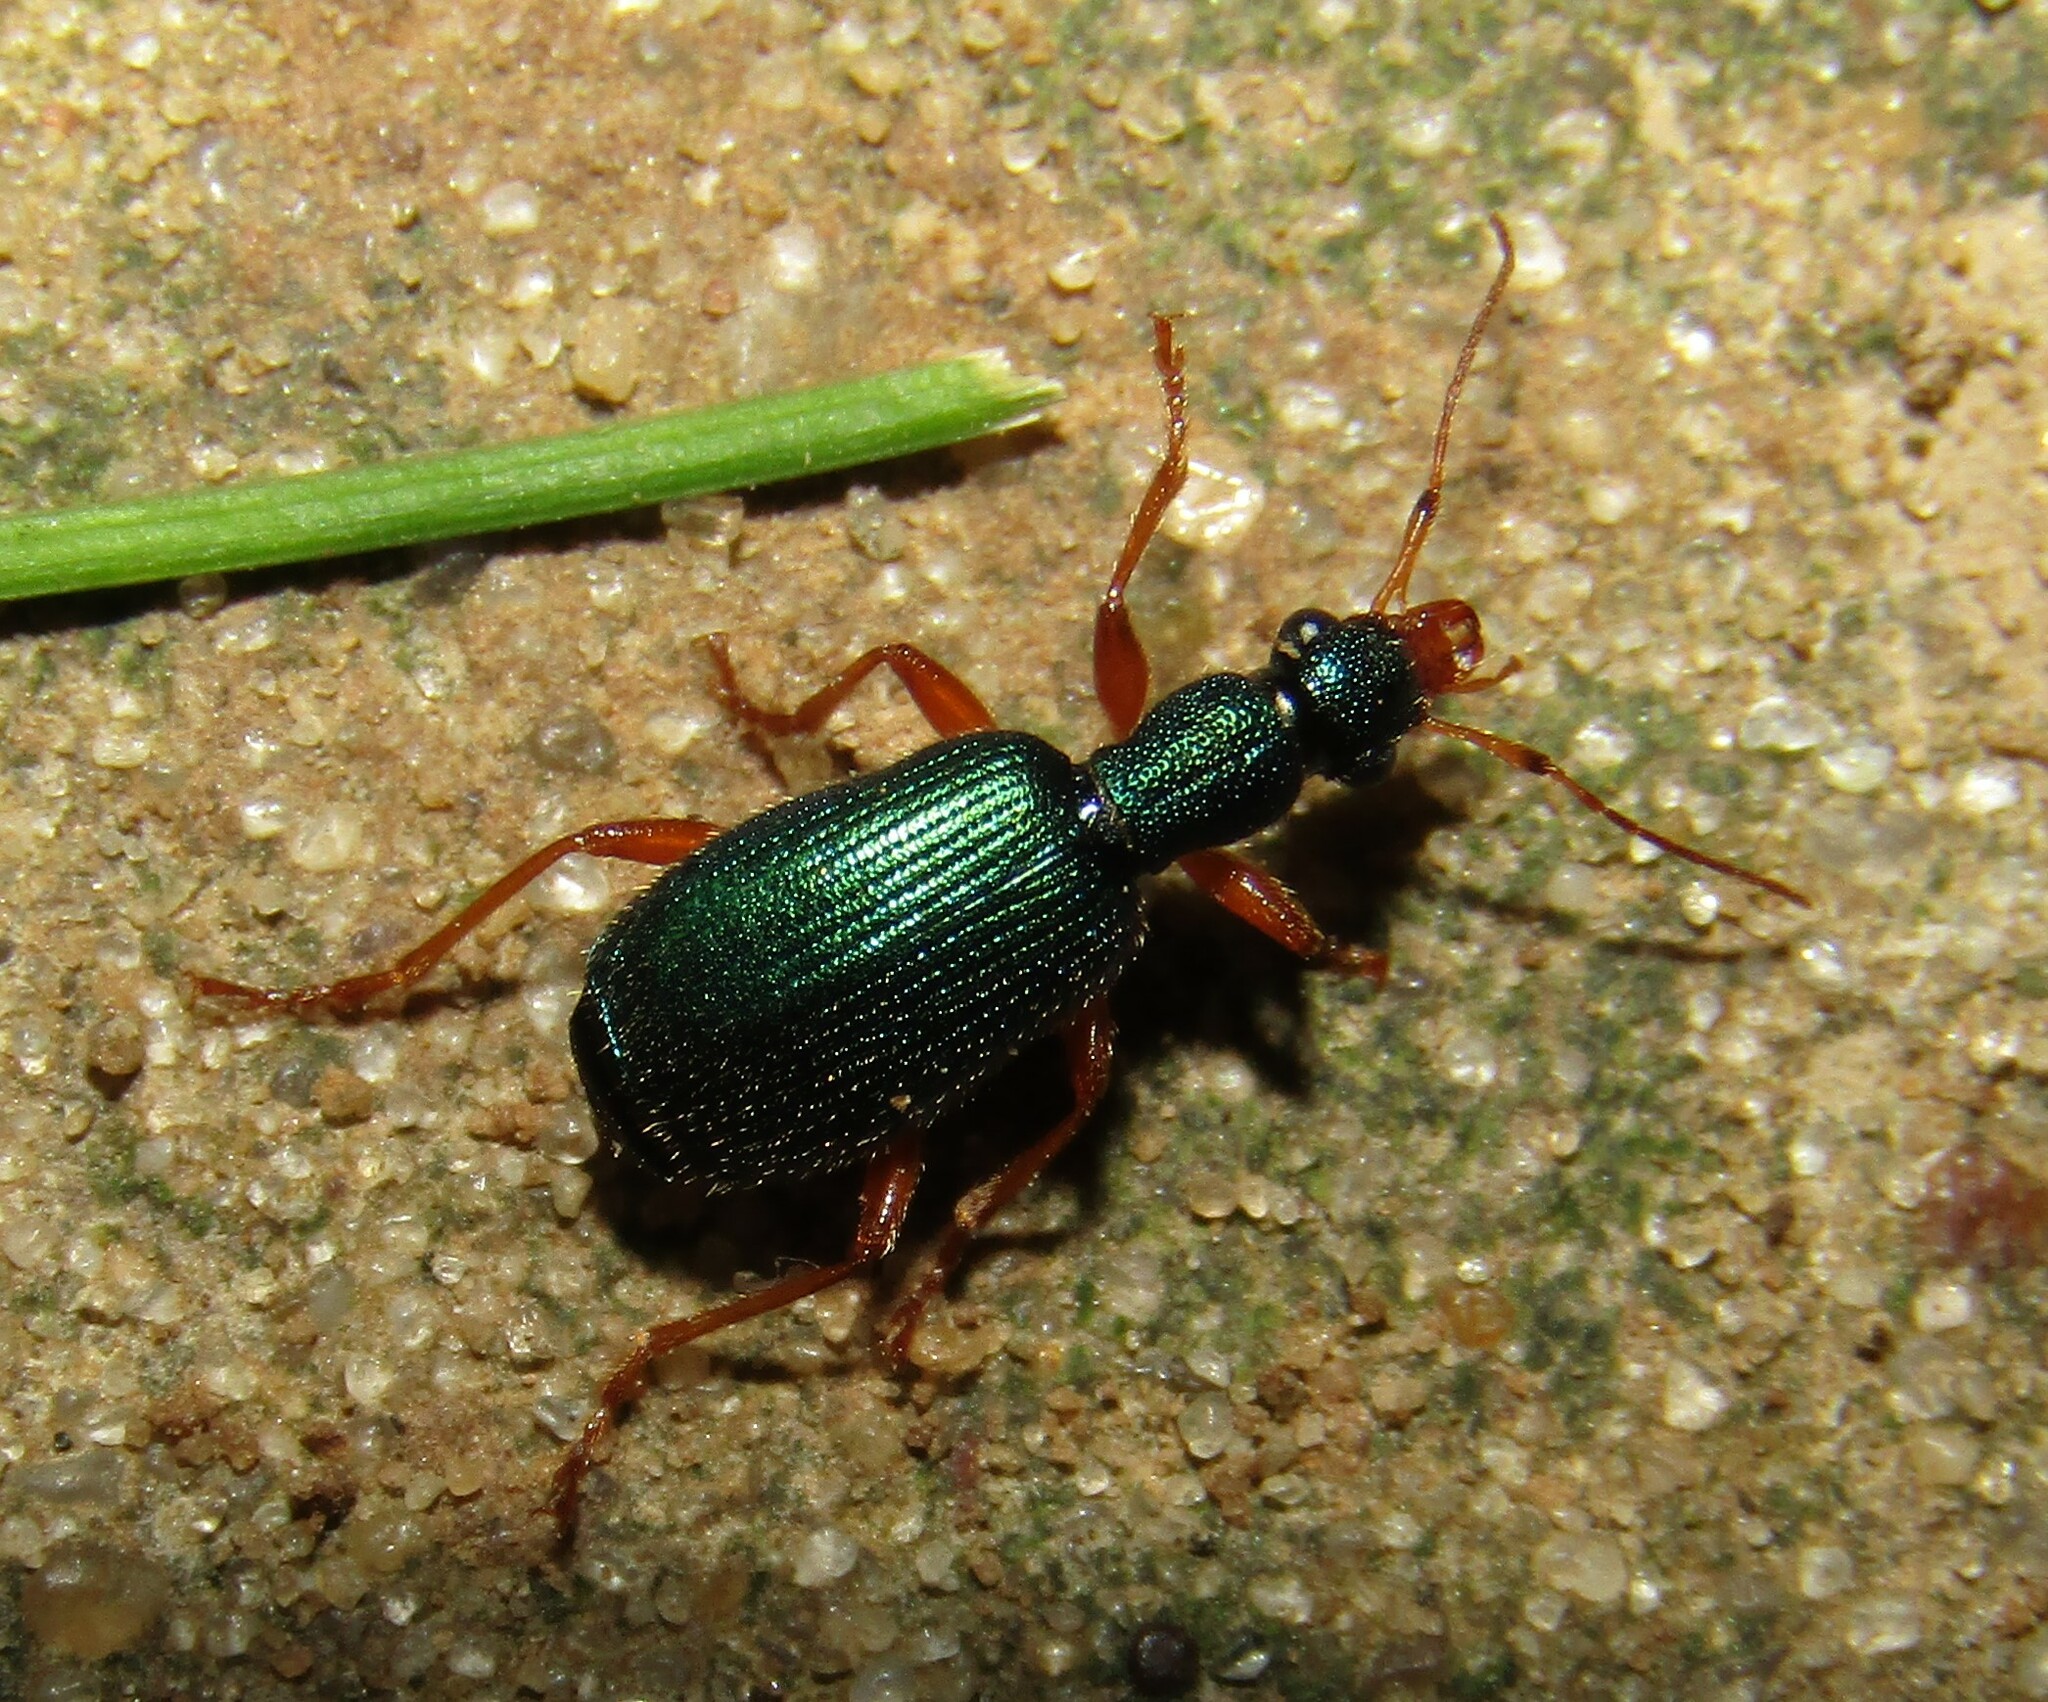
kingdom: Animalia
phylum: Arthropoda
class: Insecta
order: Coleoptera
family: Carabidae
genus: Drypta
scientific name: Drypta dentata
